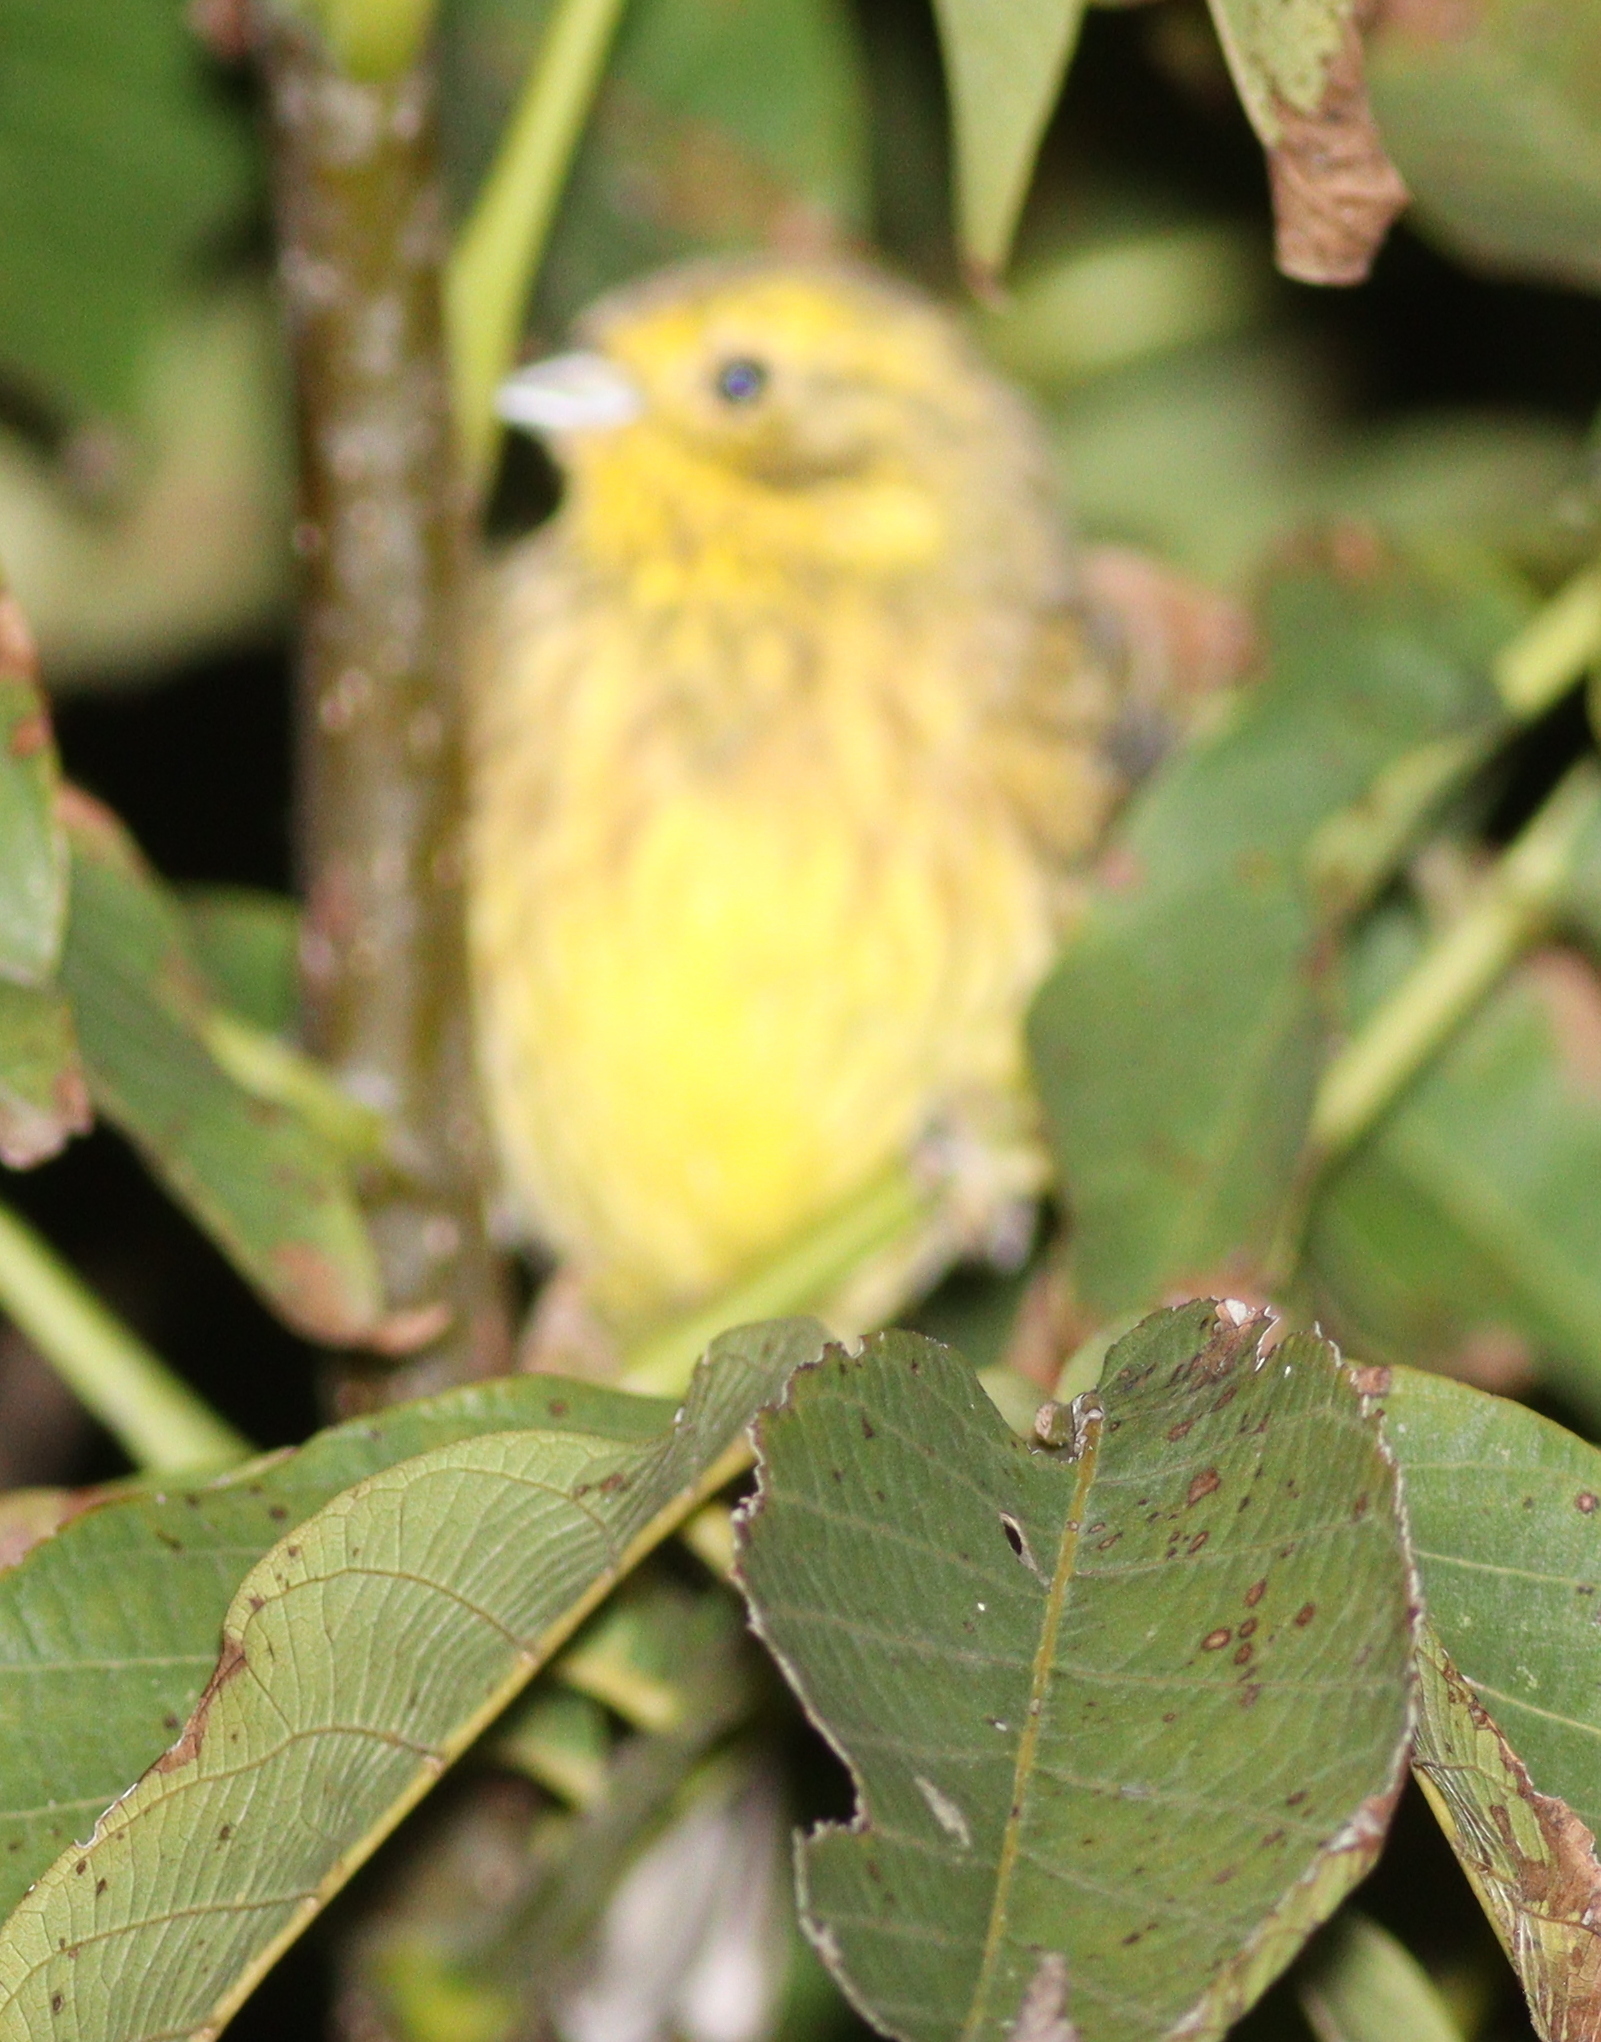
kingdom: Animalia
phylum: Chordata
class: Aves
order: Passeriformes
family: Emberizidae
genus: Emberiza
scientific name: Emberiza citrinella
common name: Yellowhammer
